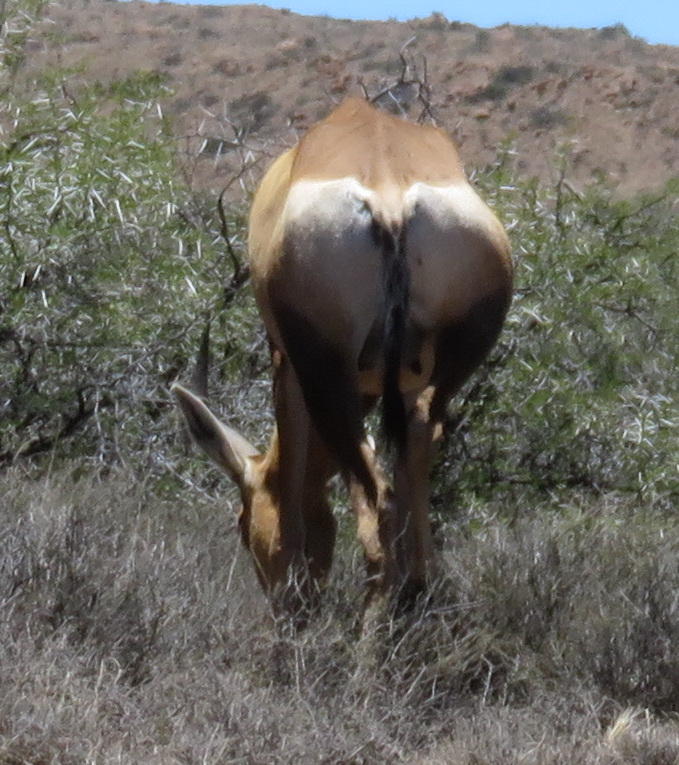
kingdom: Animalia
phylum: Chordata
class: Mammalia
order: Artiodactyla
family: Bovidae
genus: Alcelaphus
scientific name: Alcelaphus caama
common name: Red hartebeest
